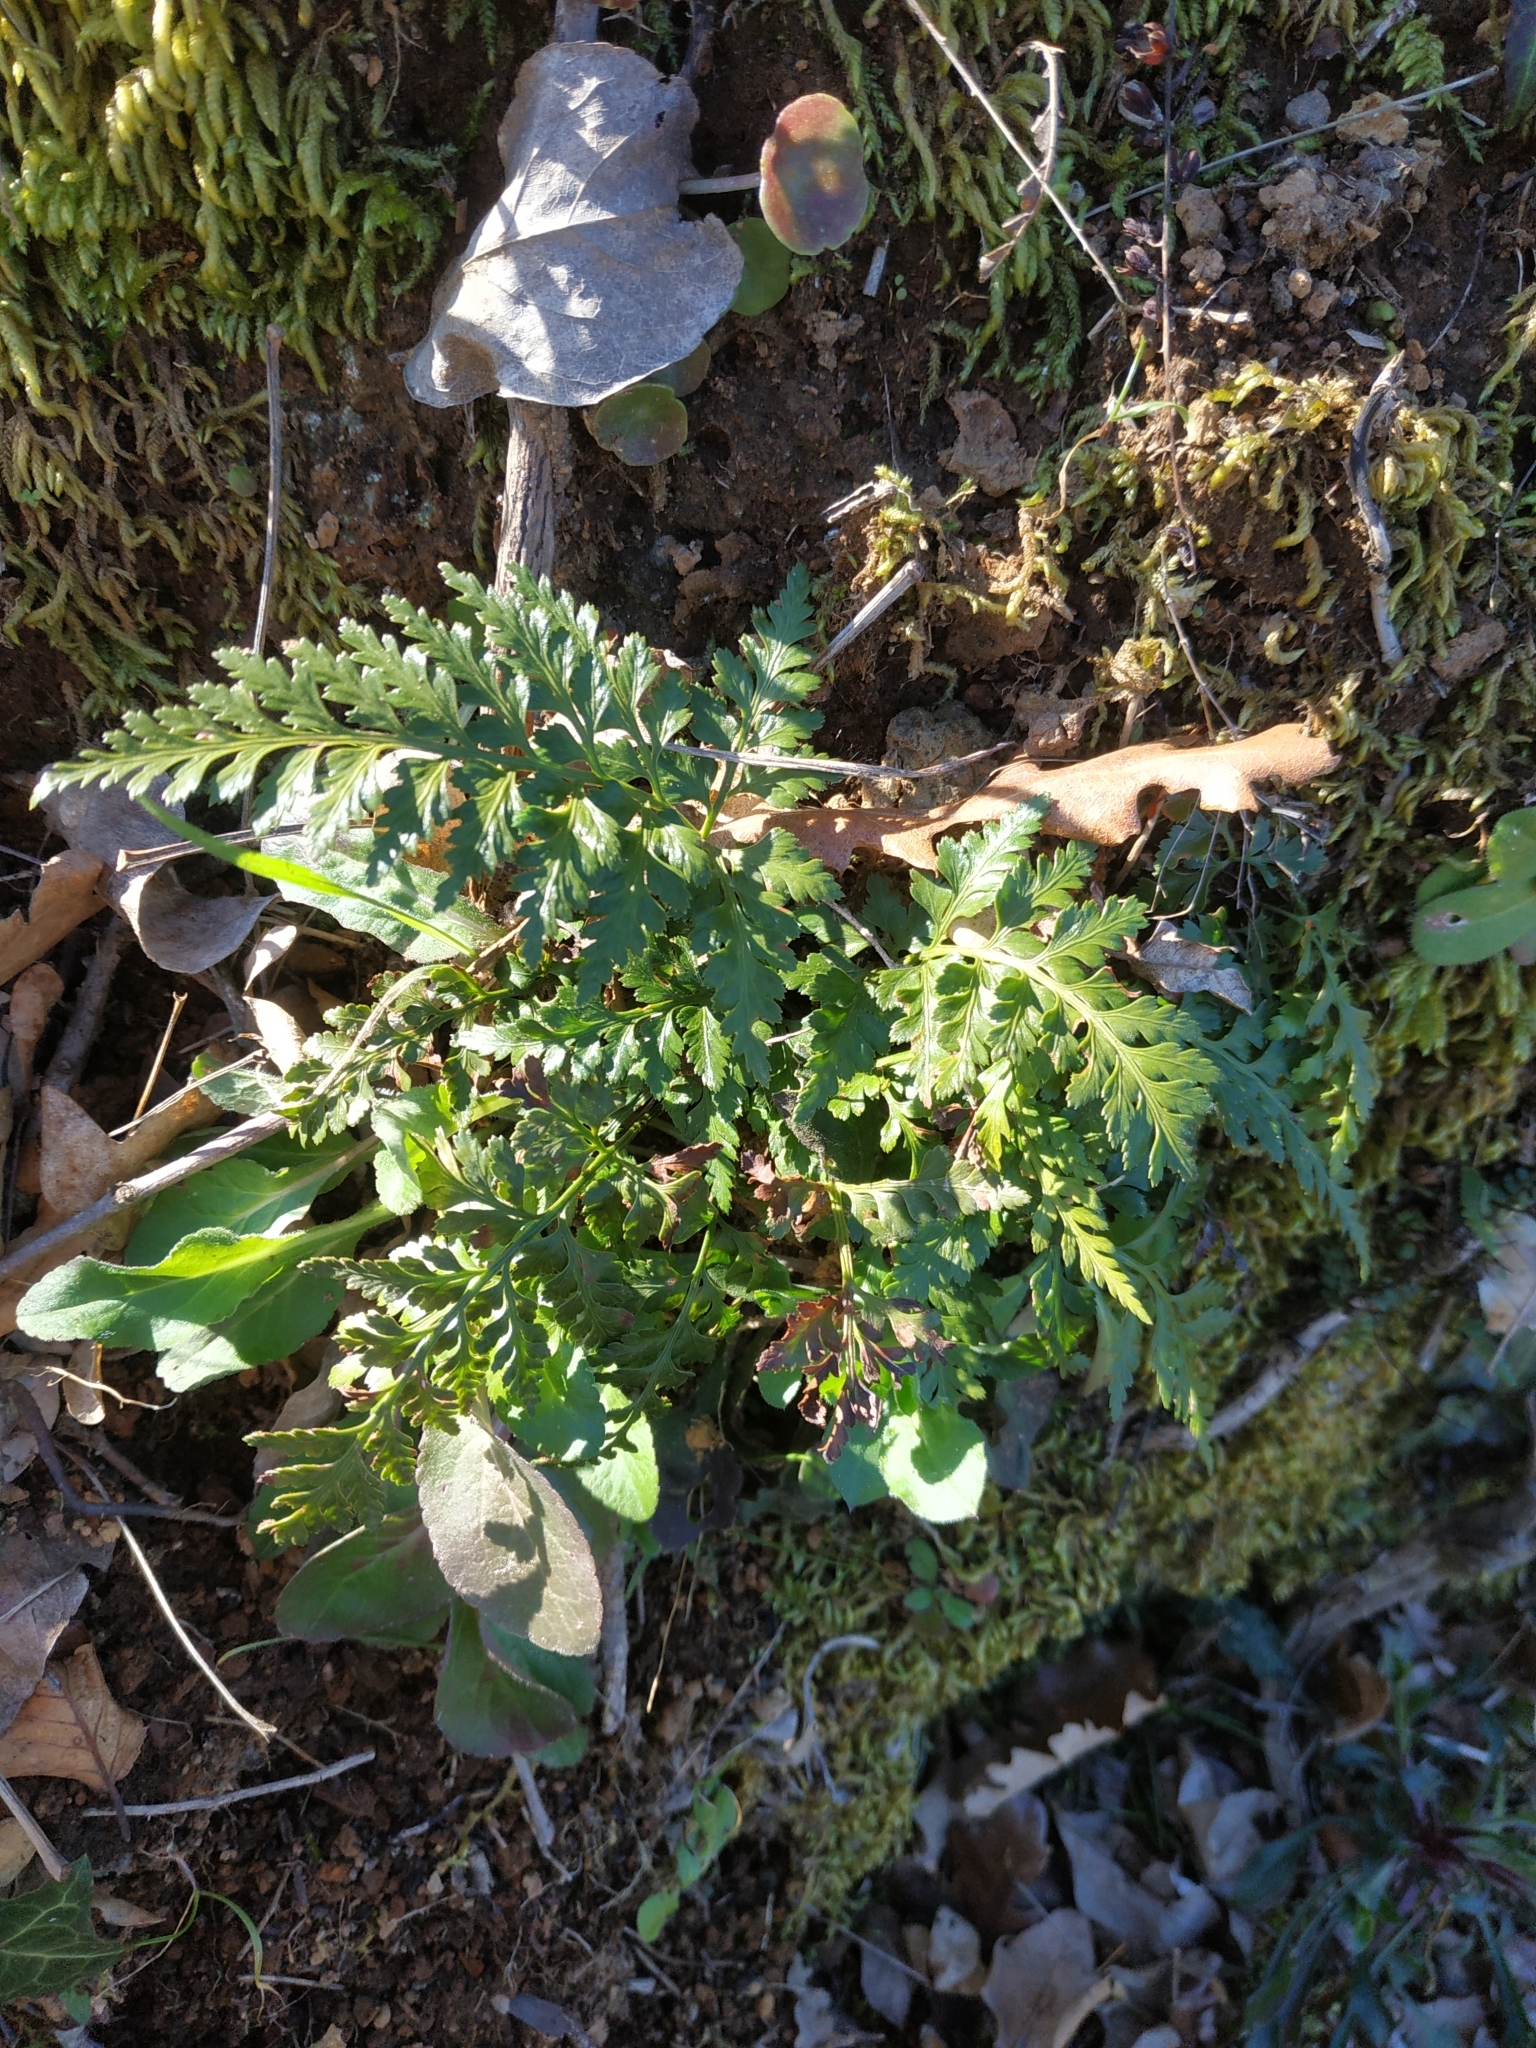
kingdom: Plantae
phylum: Tracheophyta
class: Polypodiopsida
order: Polypodiales
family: Aspleniaceae
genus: Asplenium
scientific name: Asplenium onopteris
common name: Irish spleenwort
